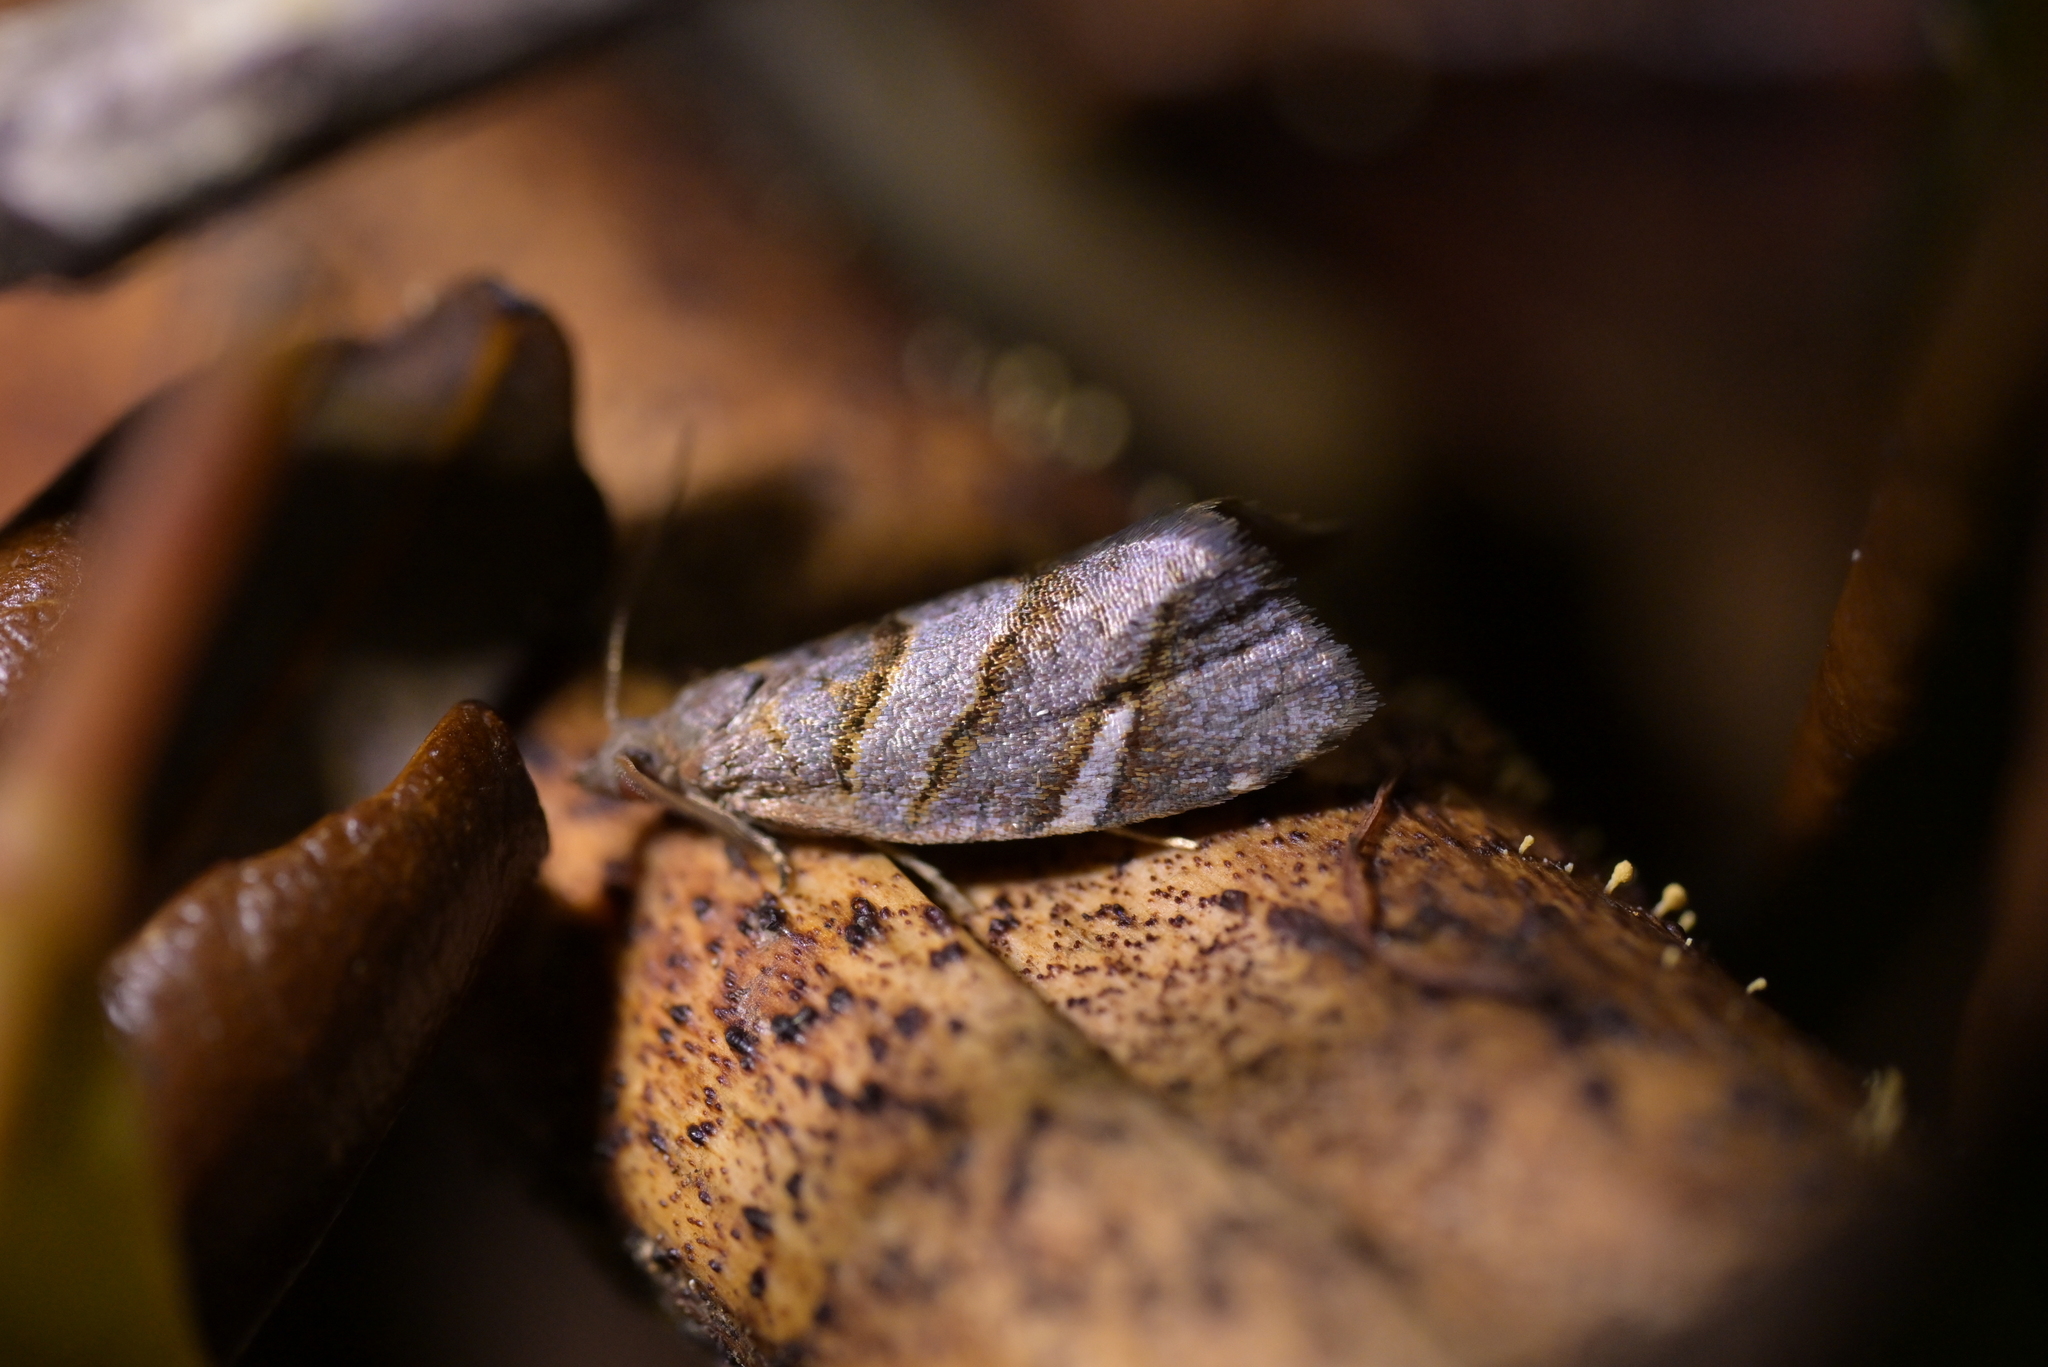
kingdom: Animalia
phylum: Arthropoda
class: Insecta
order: Lepidoptera
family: Tortricidae
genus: Ecclitica
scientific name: Ecclitica torogramma
